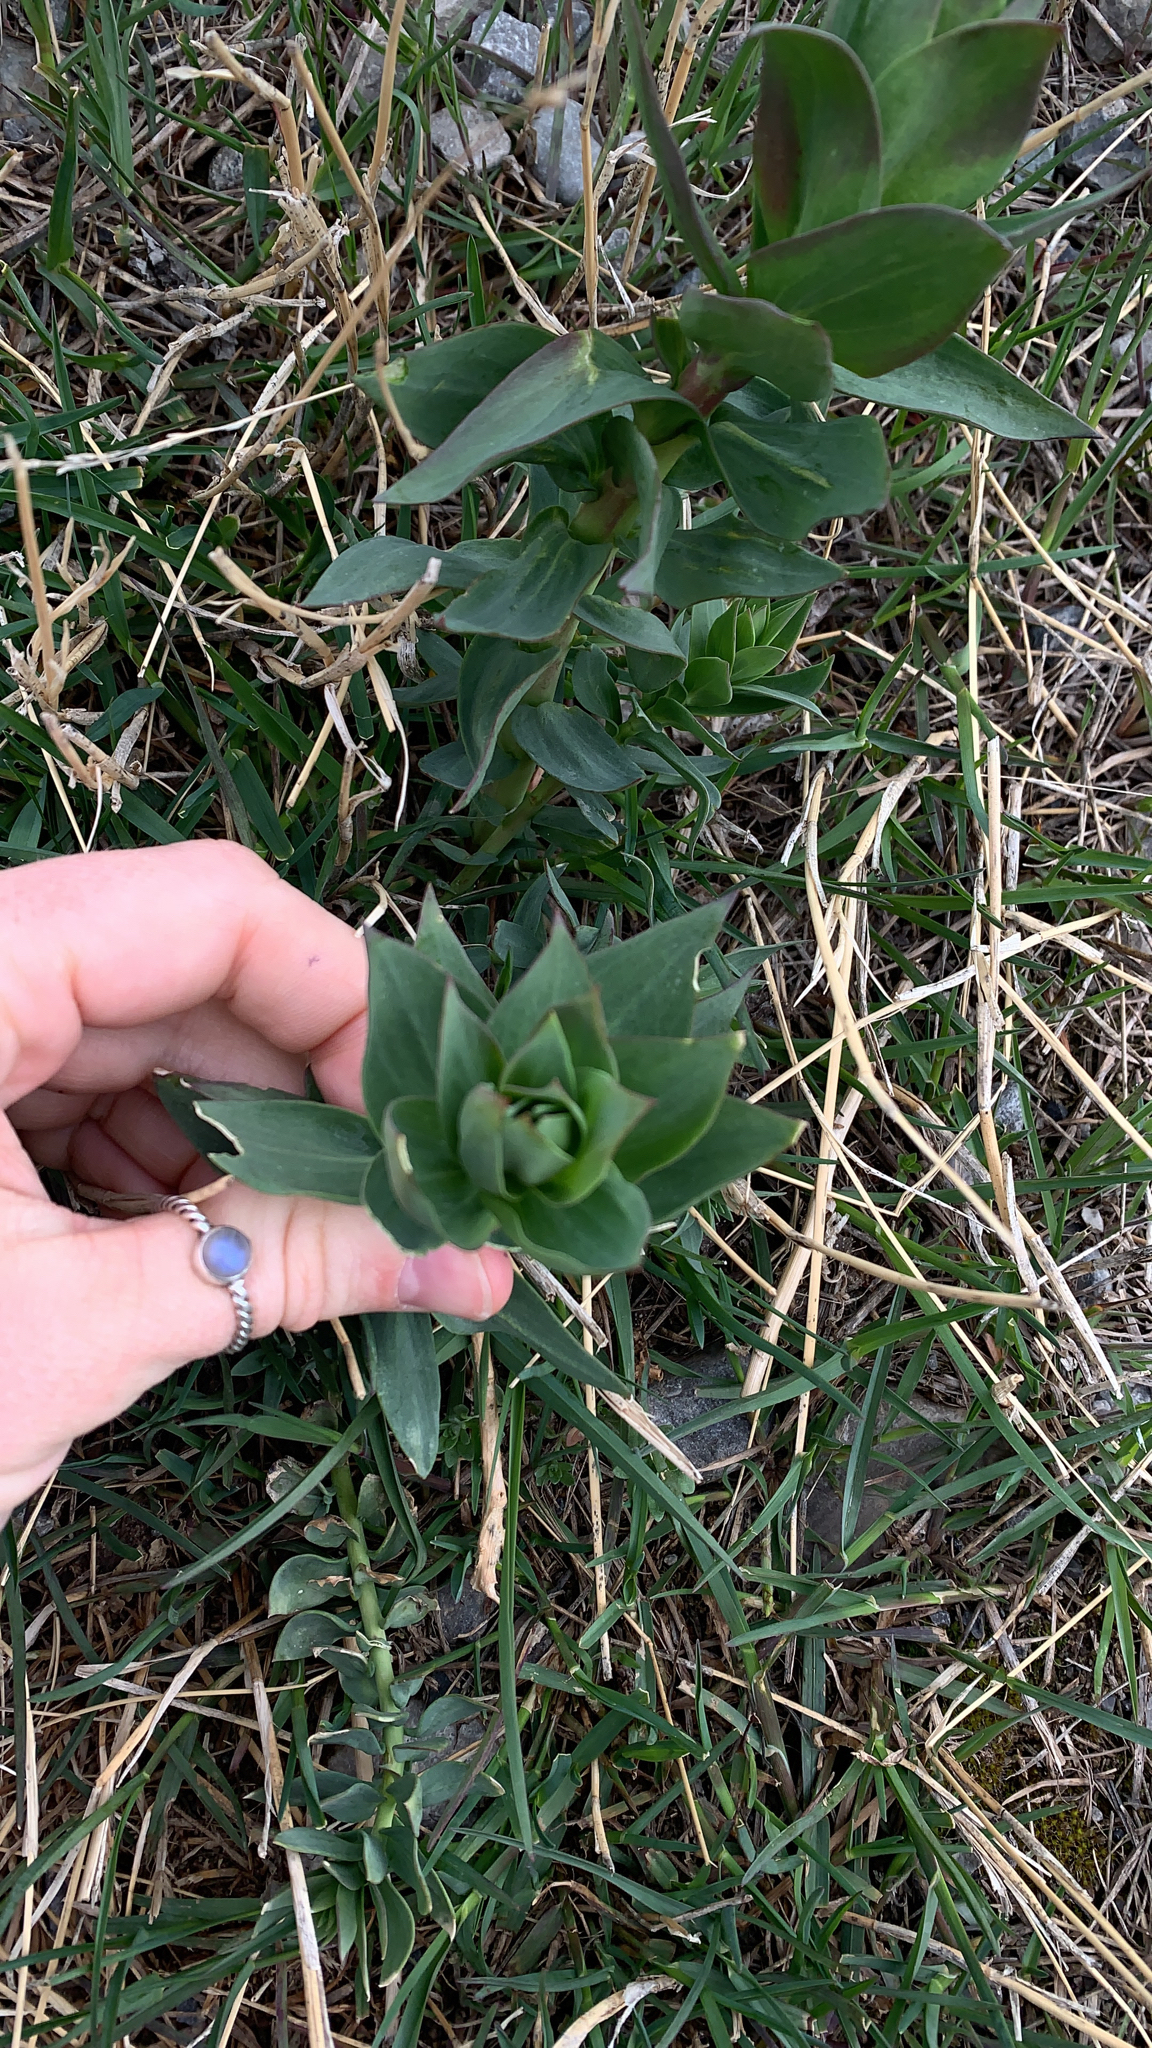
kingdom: Plantae
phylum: Tracheophyta
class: Magnoliopsida
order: Lamiales
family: Plantaginaceae
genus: Linaria
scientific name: Linaria dalmatica
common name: Dalmatian toadflax
